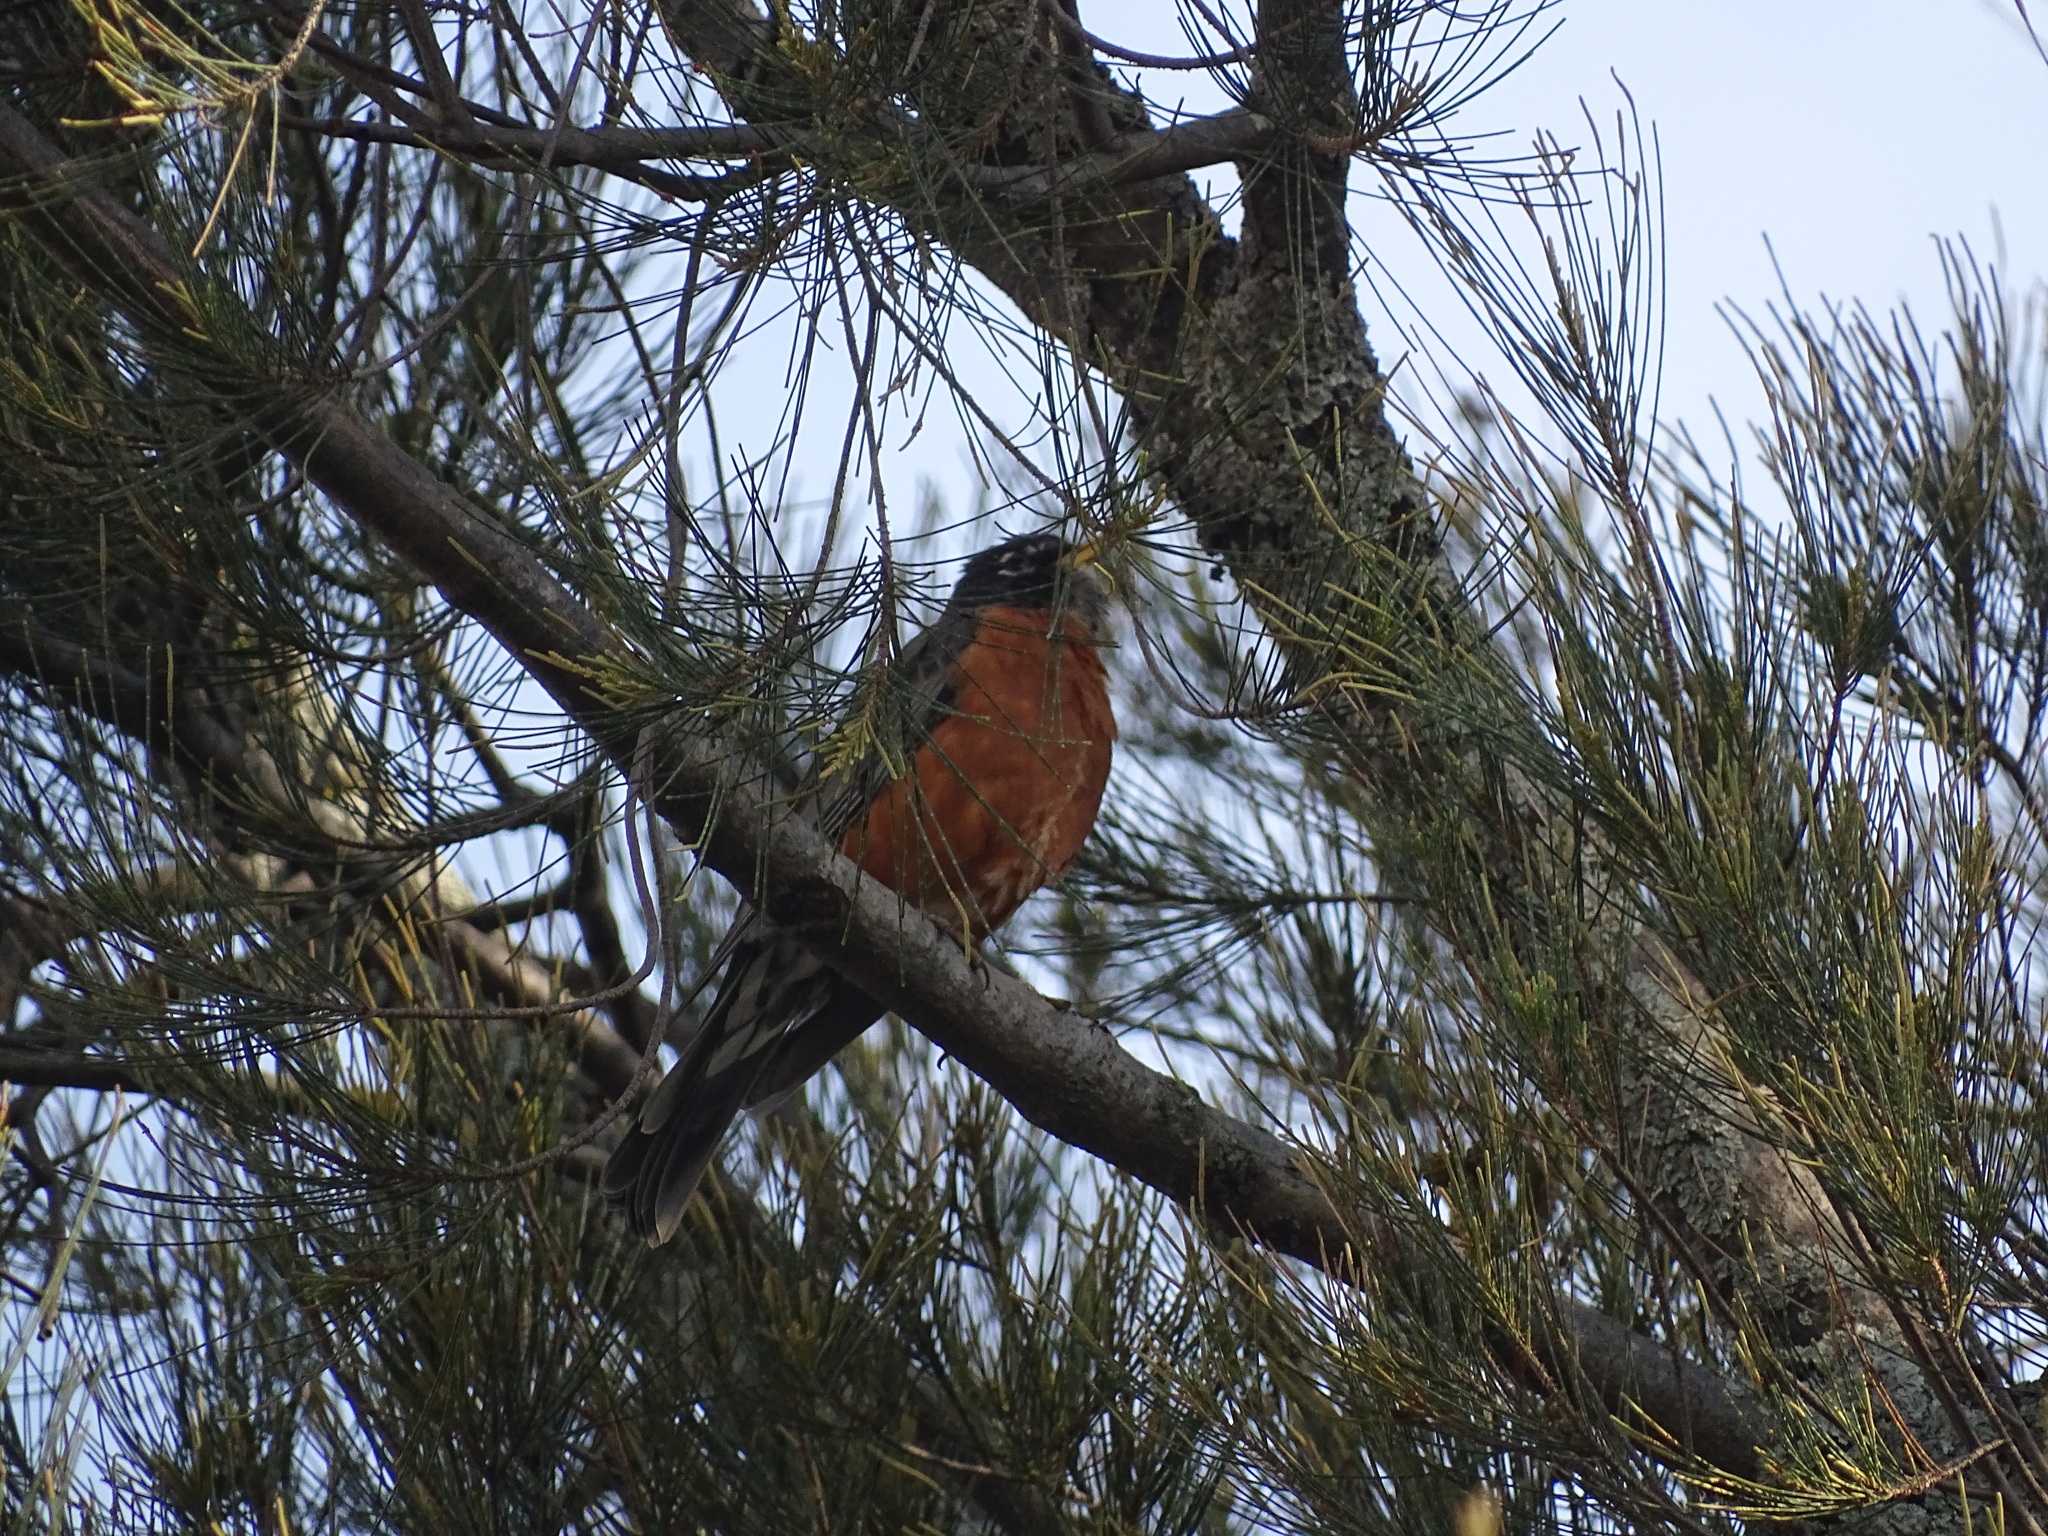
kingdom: Animalia
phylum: Chordata
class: Aves
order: Passeriformes
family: Turdidae
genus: Turdus
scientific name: Turdus migratorius
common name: American robin
